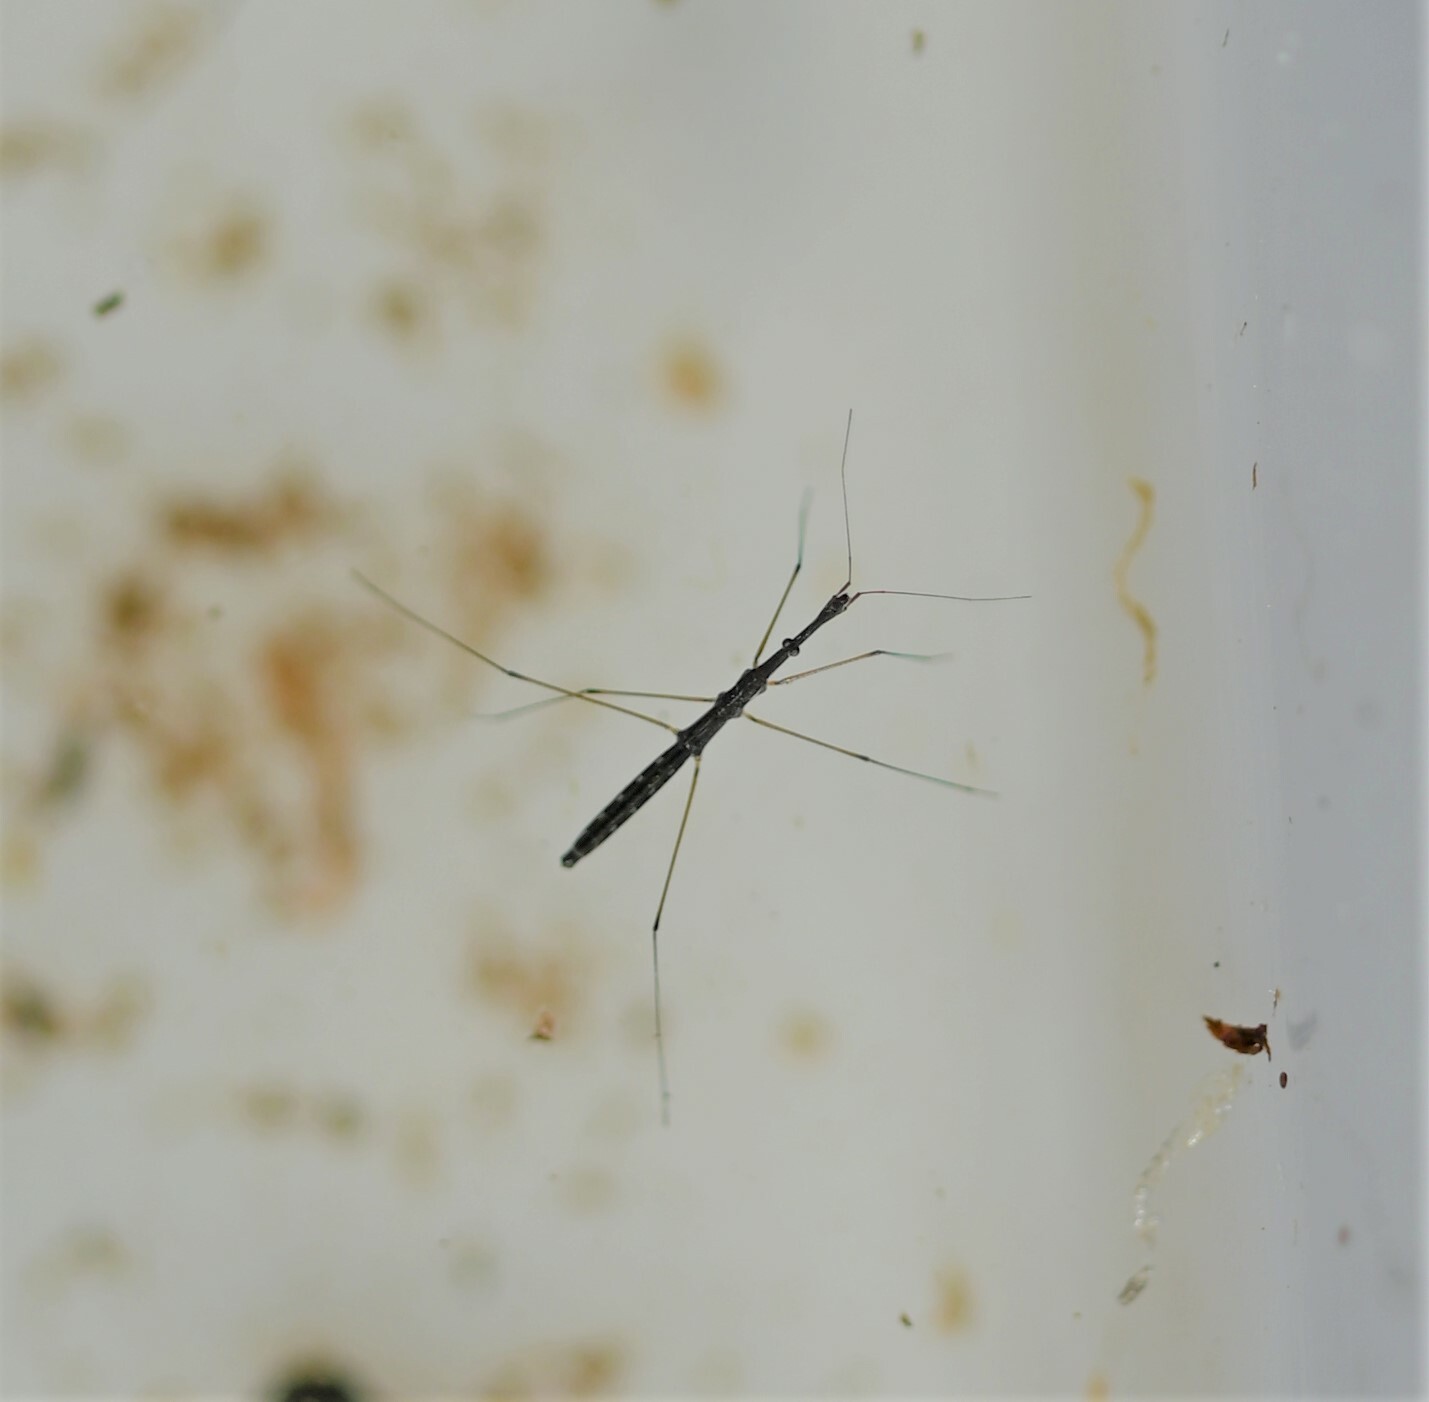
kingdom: Animalia
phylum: Arthropoda
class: Insecta
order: Hemiptera
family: Hydrometridae
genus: Hydrometra
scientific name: Hydrometra stagnorum
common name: Water measurer
